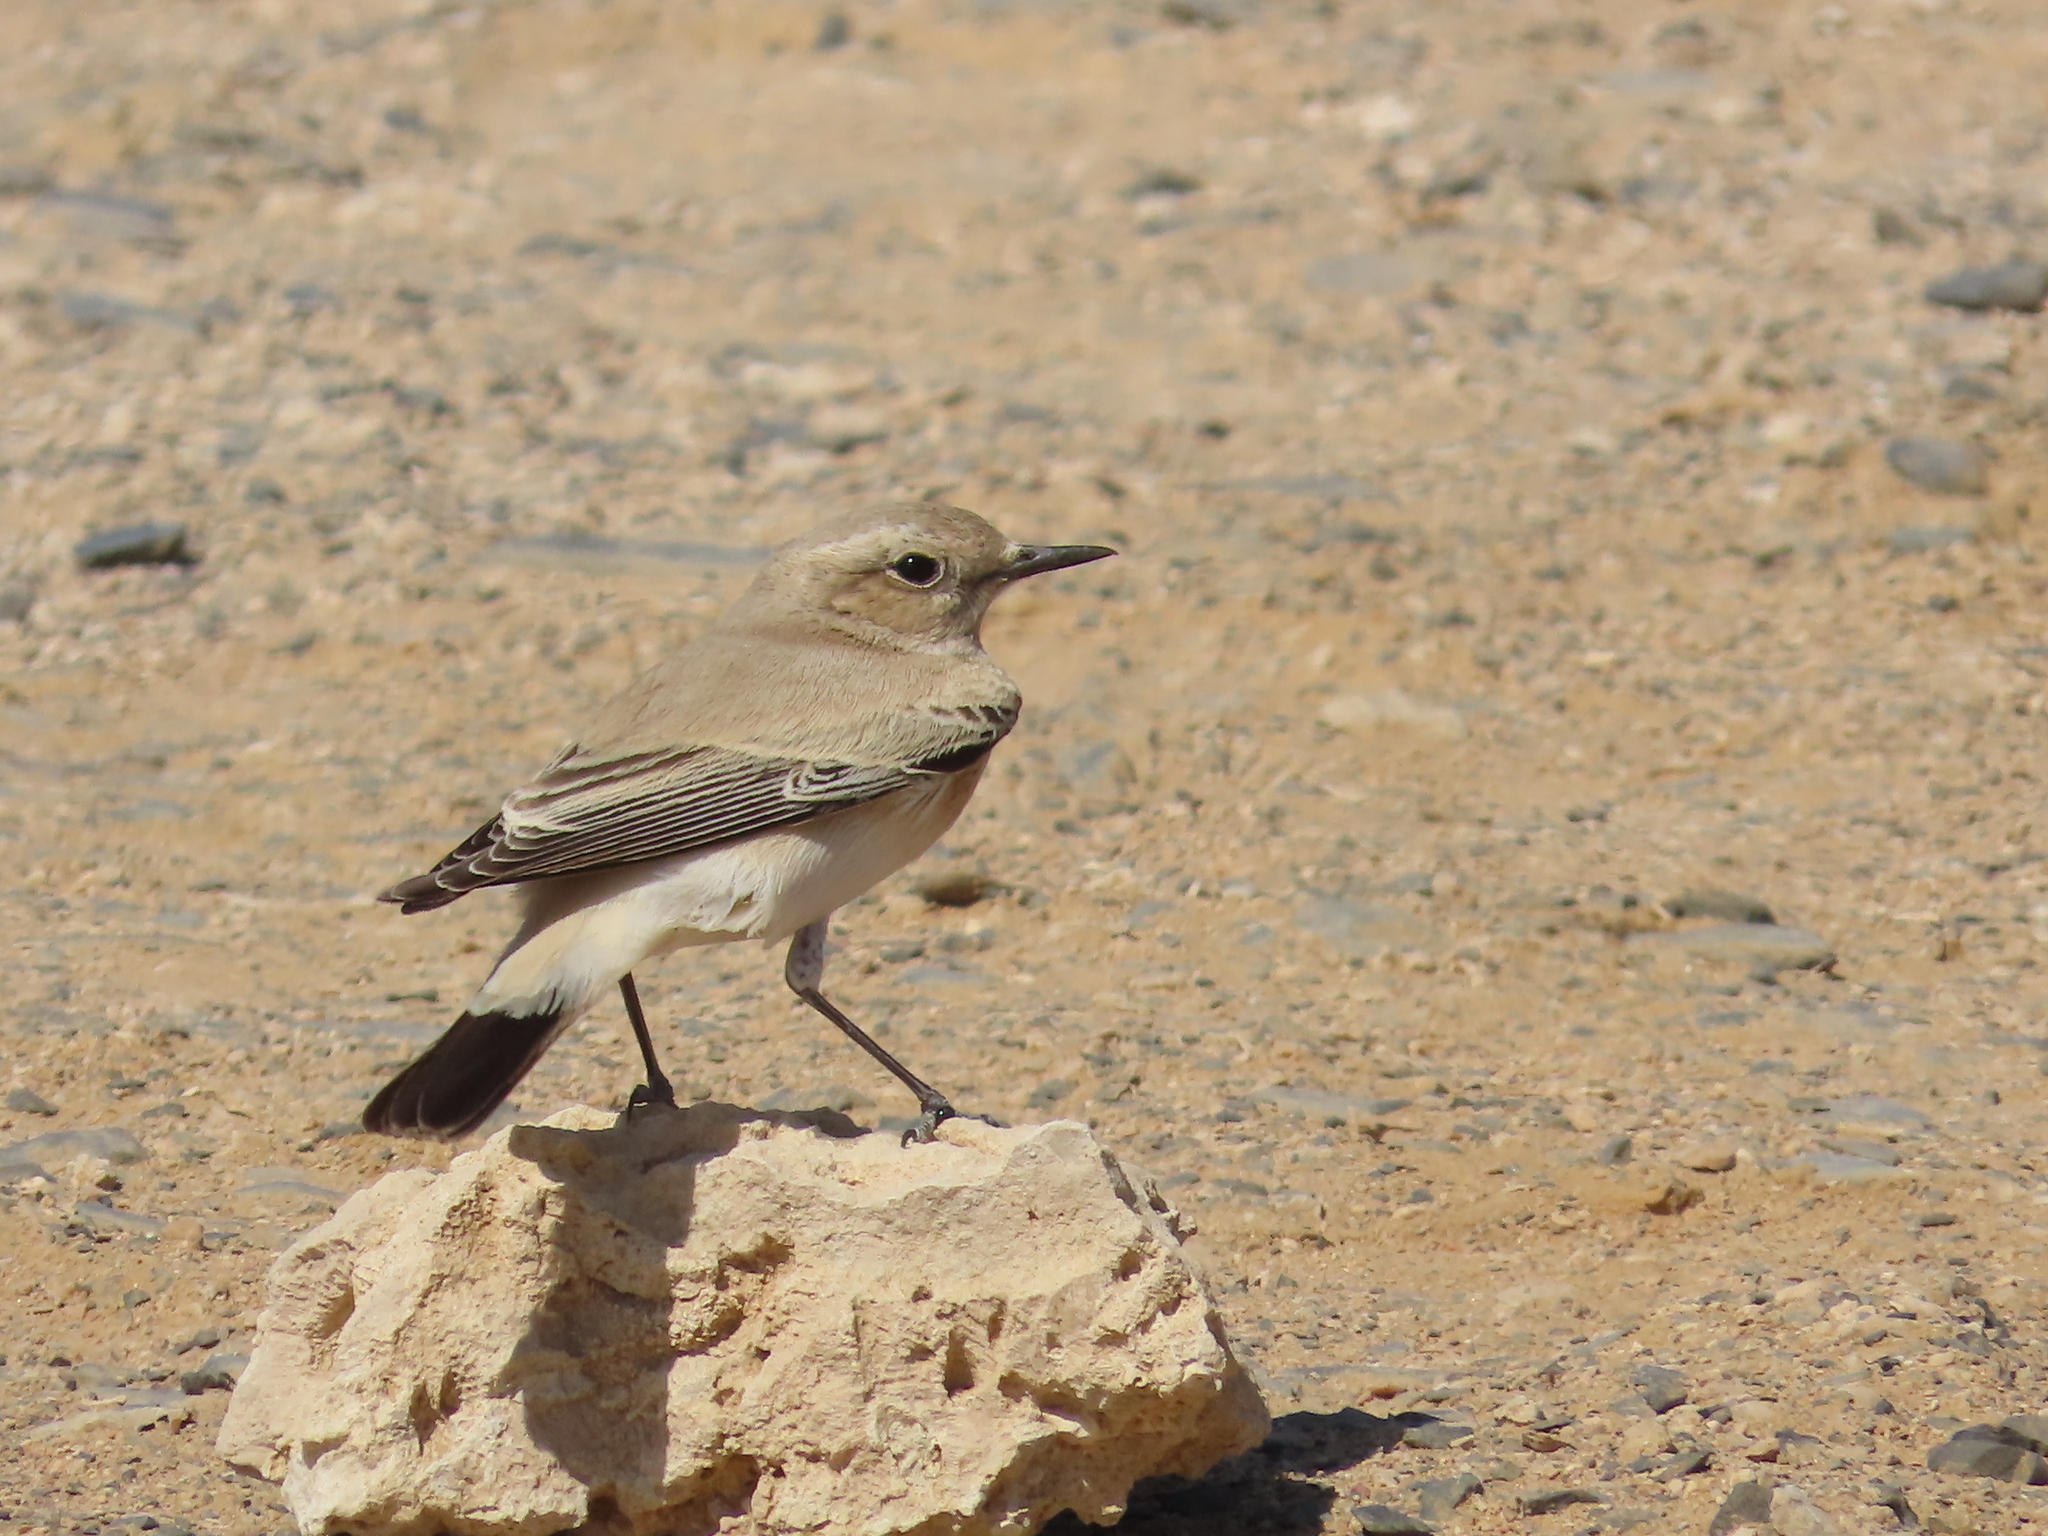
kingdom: Animalia
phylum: Chordata
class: Aves
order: Passeriformes
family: Muscicapidae
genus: Oenanthe
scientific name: Oenanthe deserti
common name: Desert wheatear
